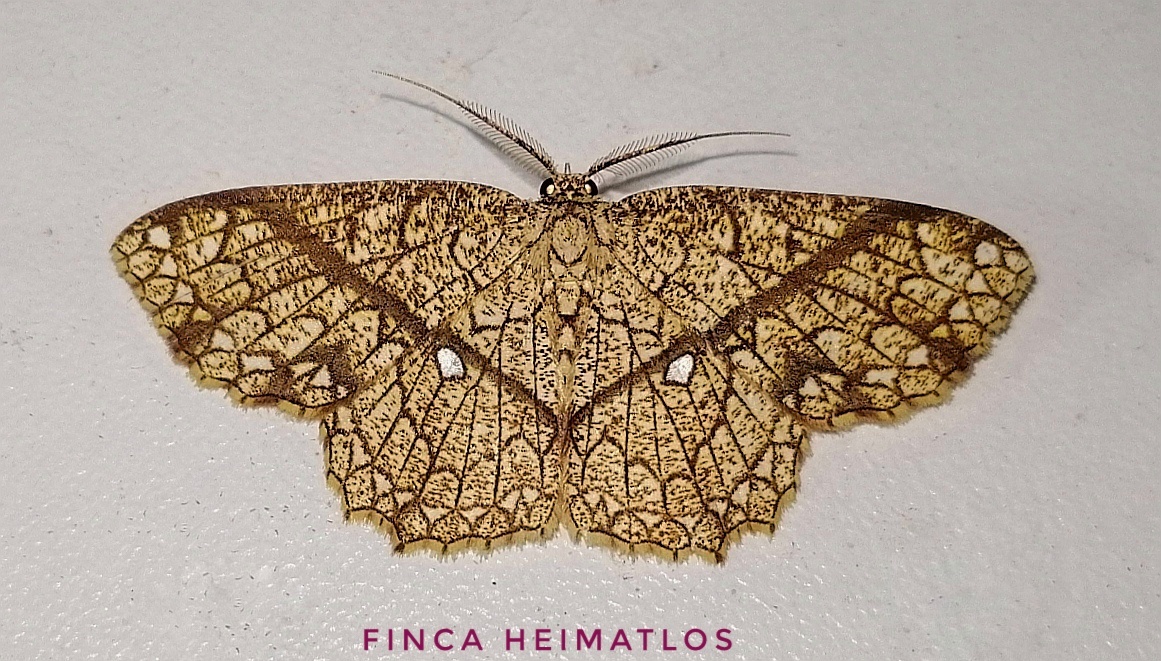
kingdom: Animalia
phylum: Arthropoda
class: Insecta
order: Lepidoptera
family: Geometridae
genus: Cyclophora
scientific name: Cyclophora insigniata
